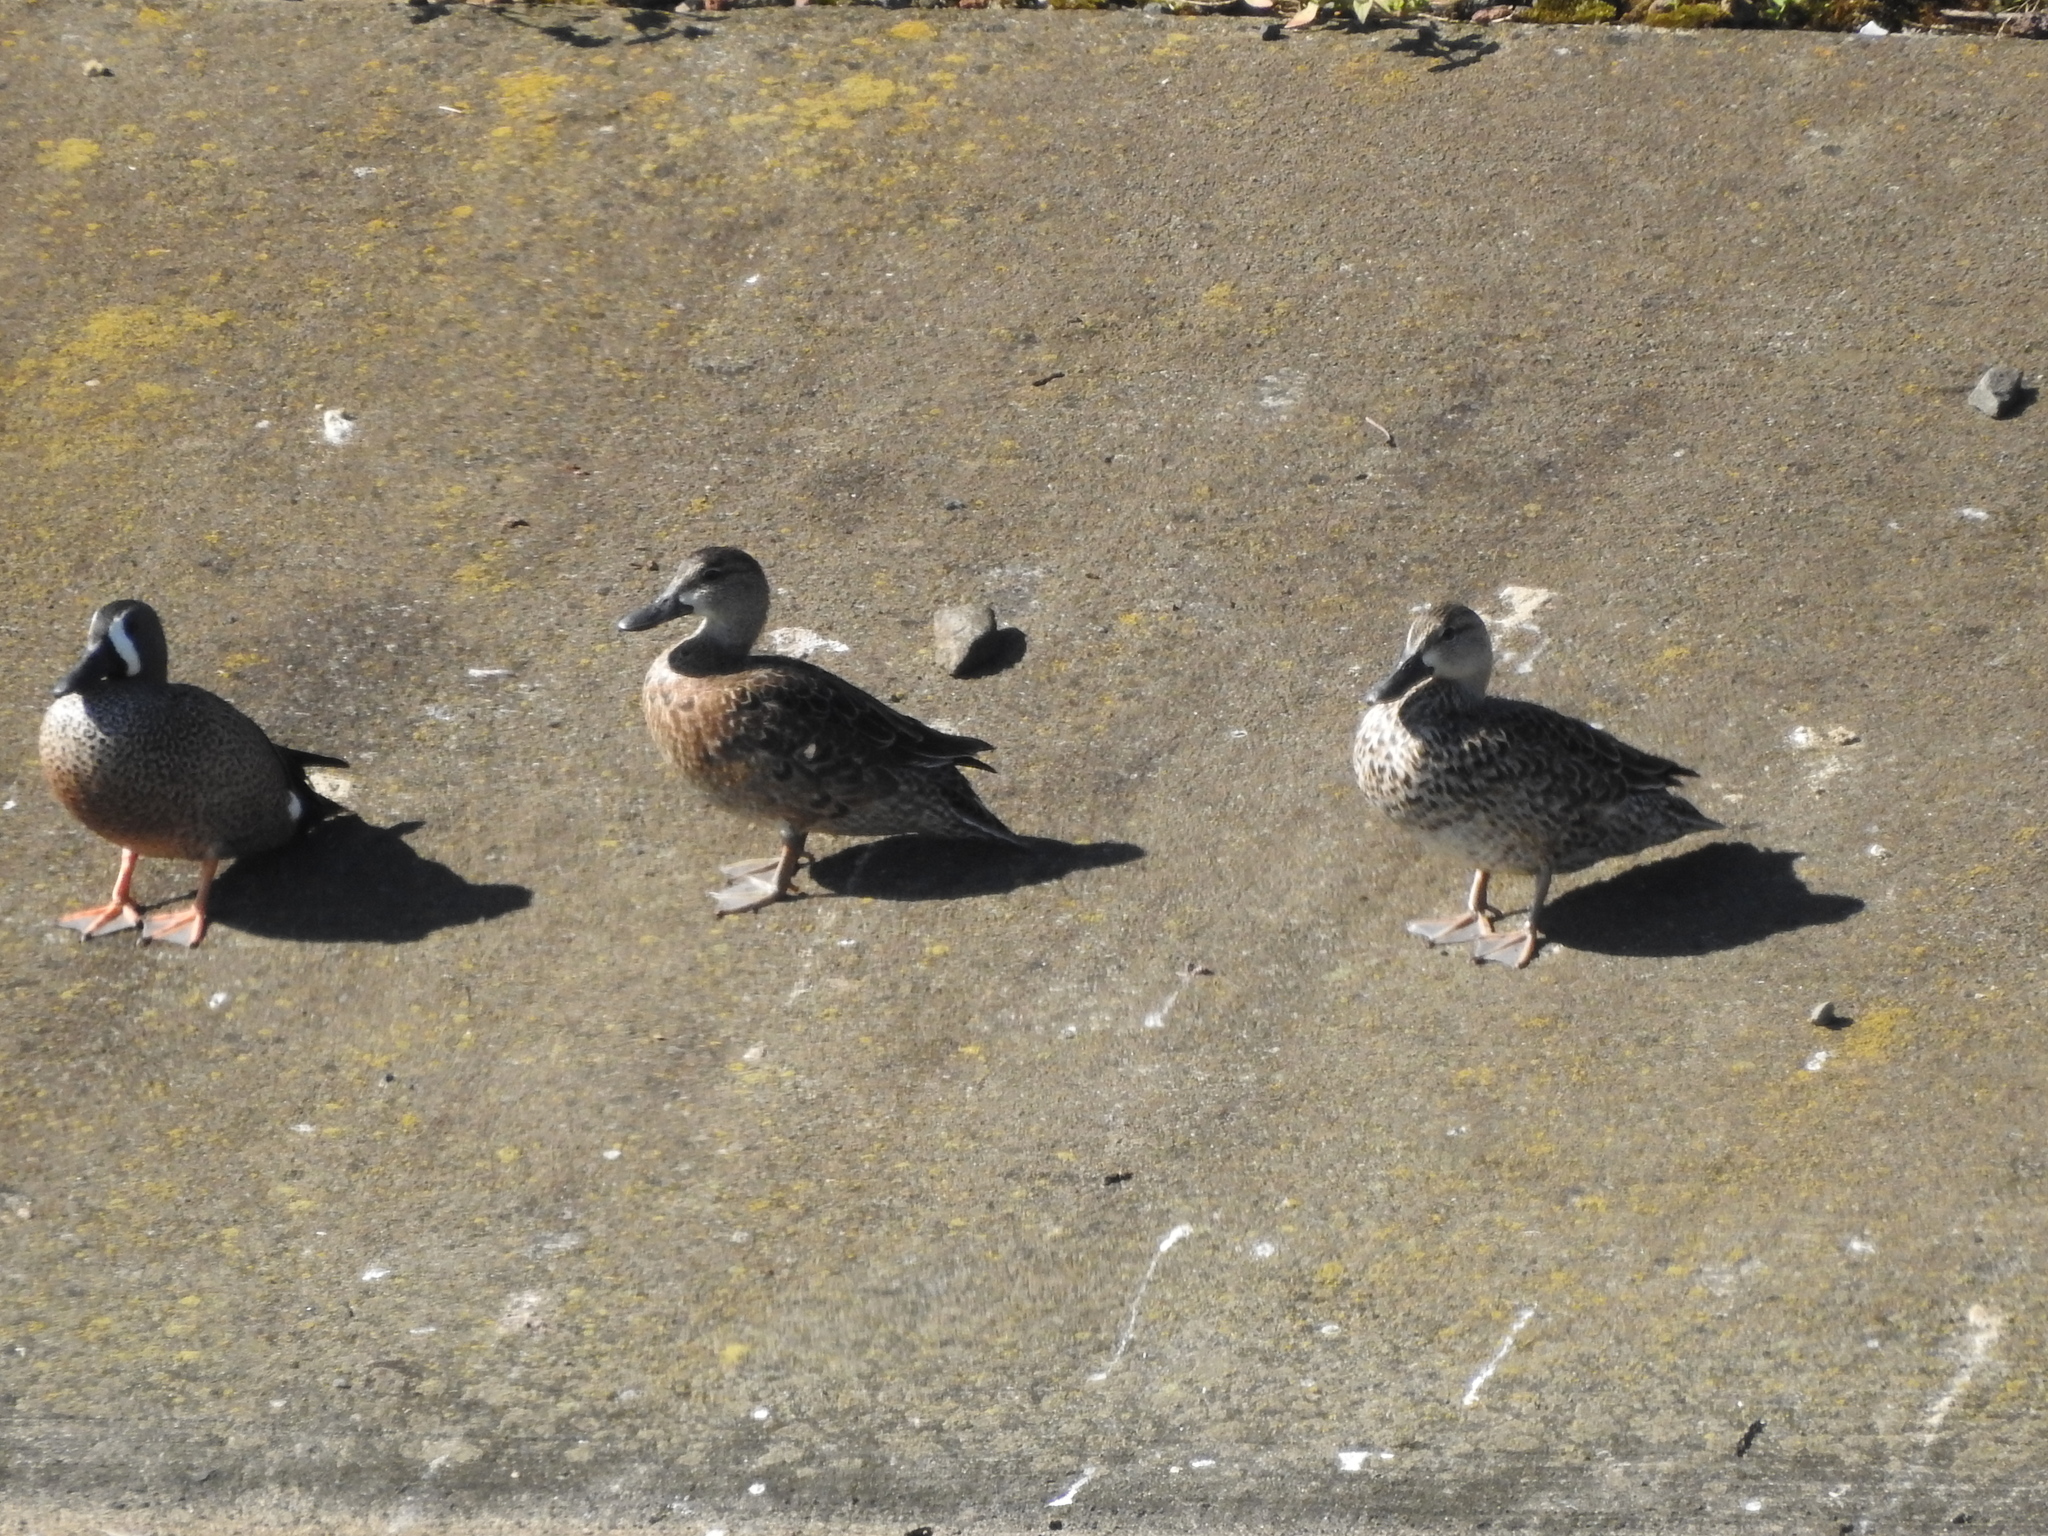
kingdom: Animalia
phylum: Chordata
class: Aves
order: Anseriformes
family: Anatidae
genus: Spatula
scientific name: Spatula discors
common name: Blue-winged teal
